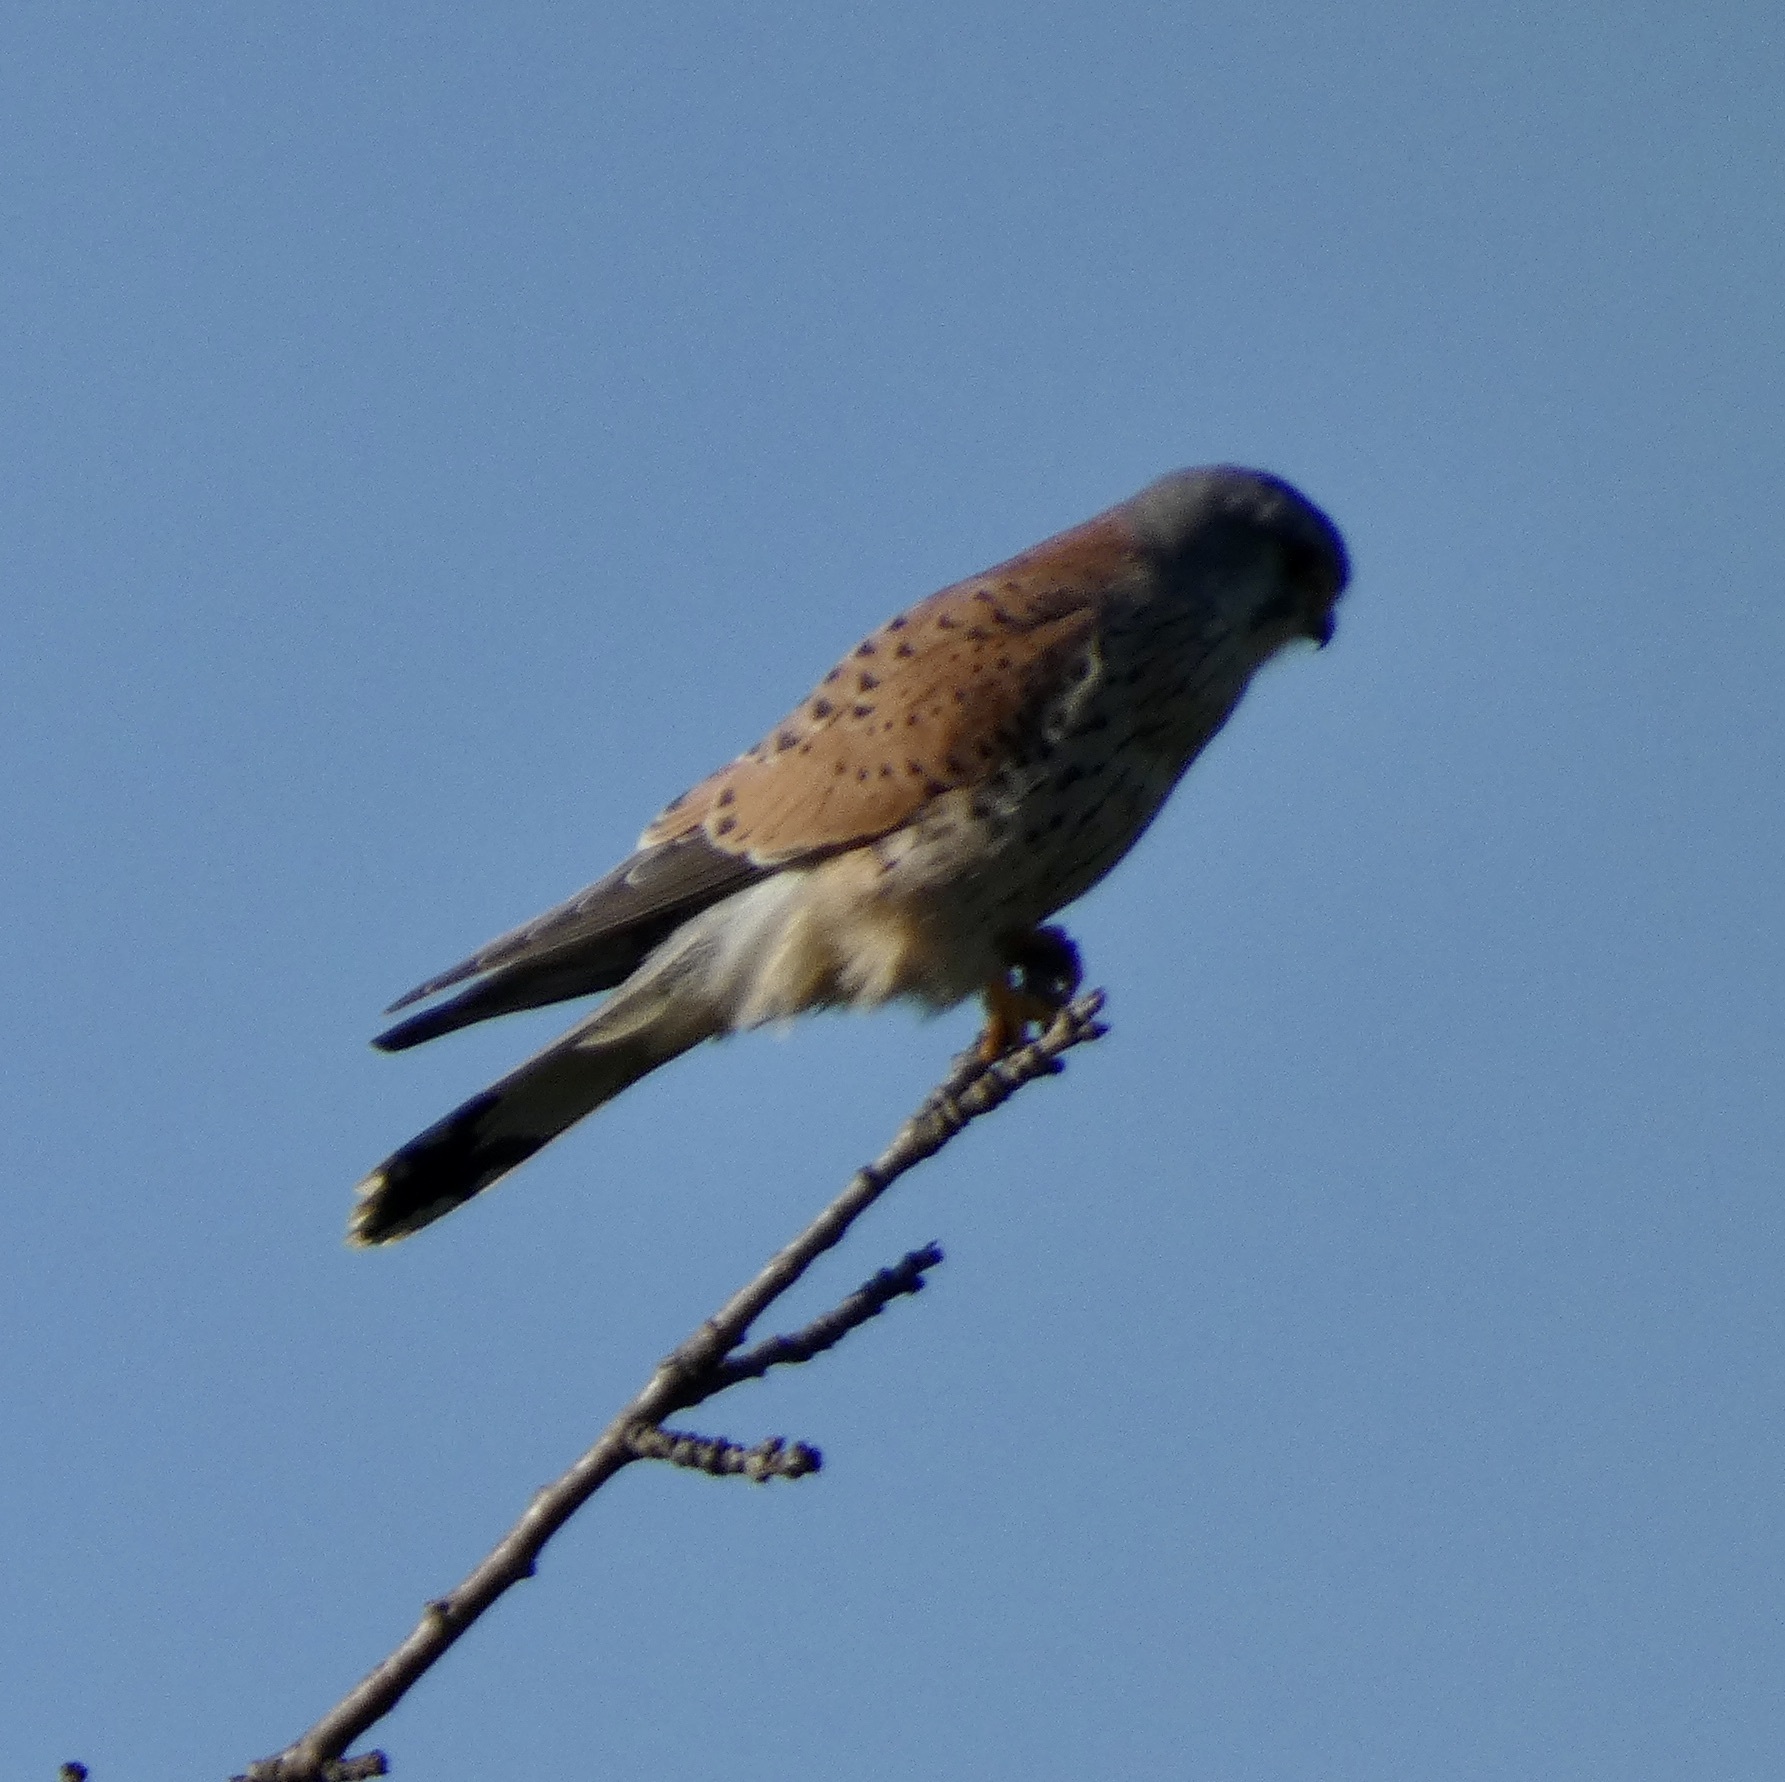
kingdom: Animalia
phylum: Chordata
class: Aves
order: Falconiformes
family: Falconidae
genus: Falco
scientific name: Falco tinnunculus
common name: Common kestrel
